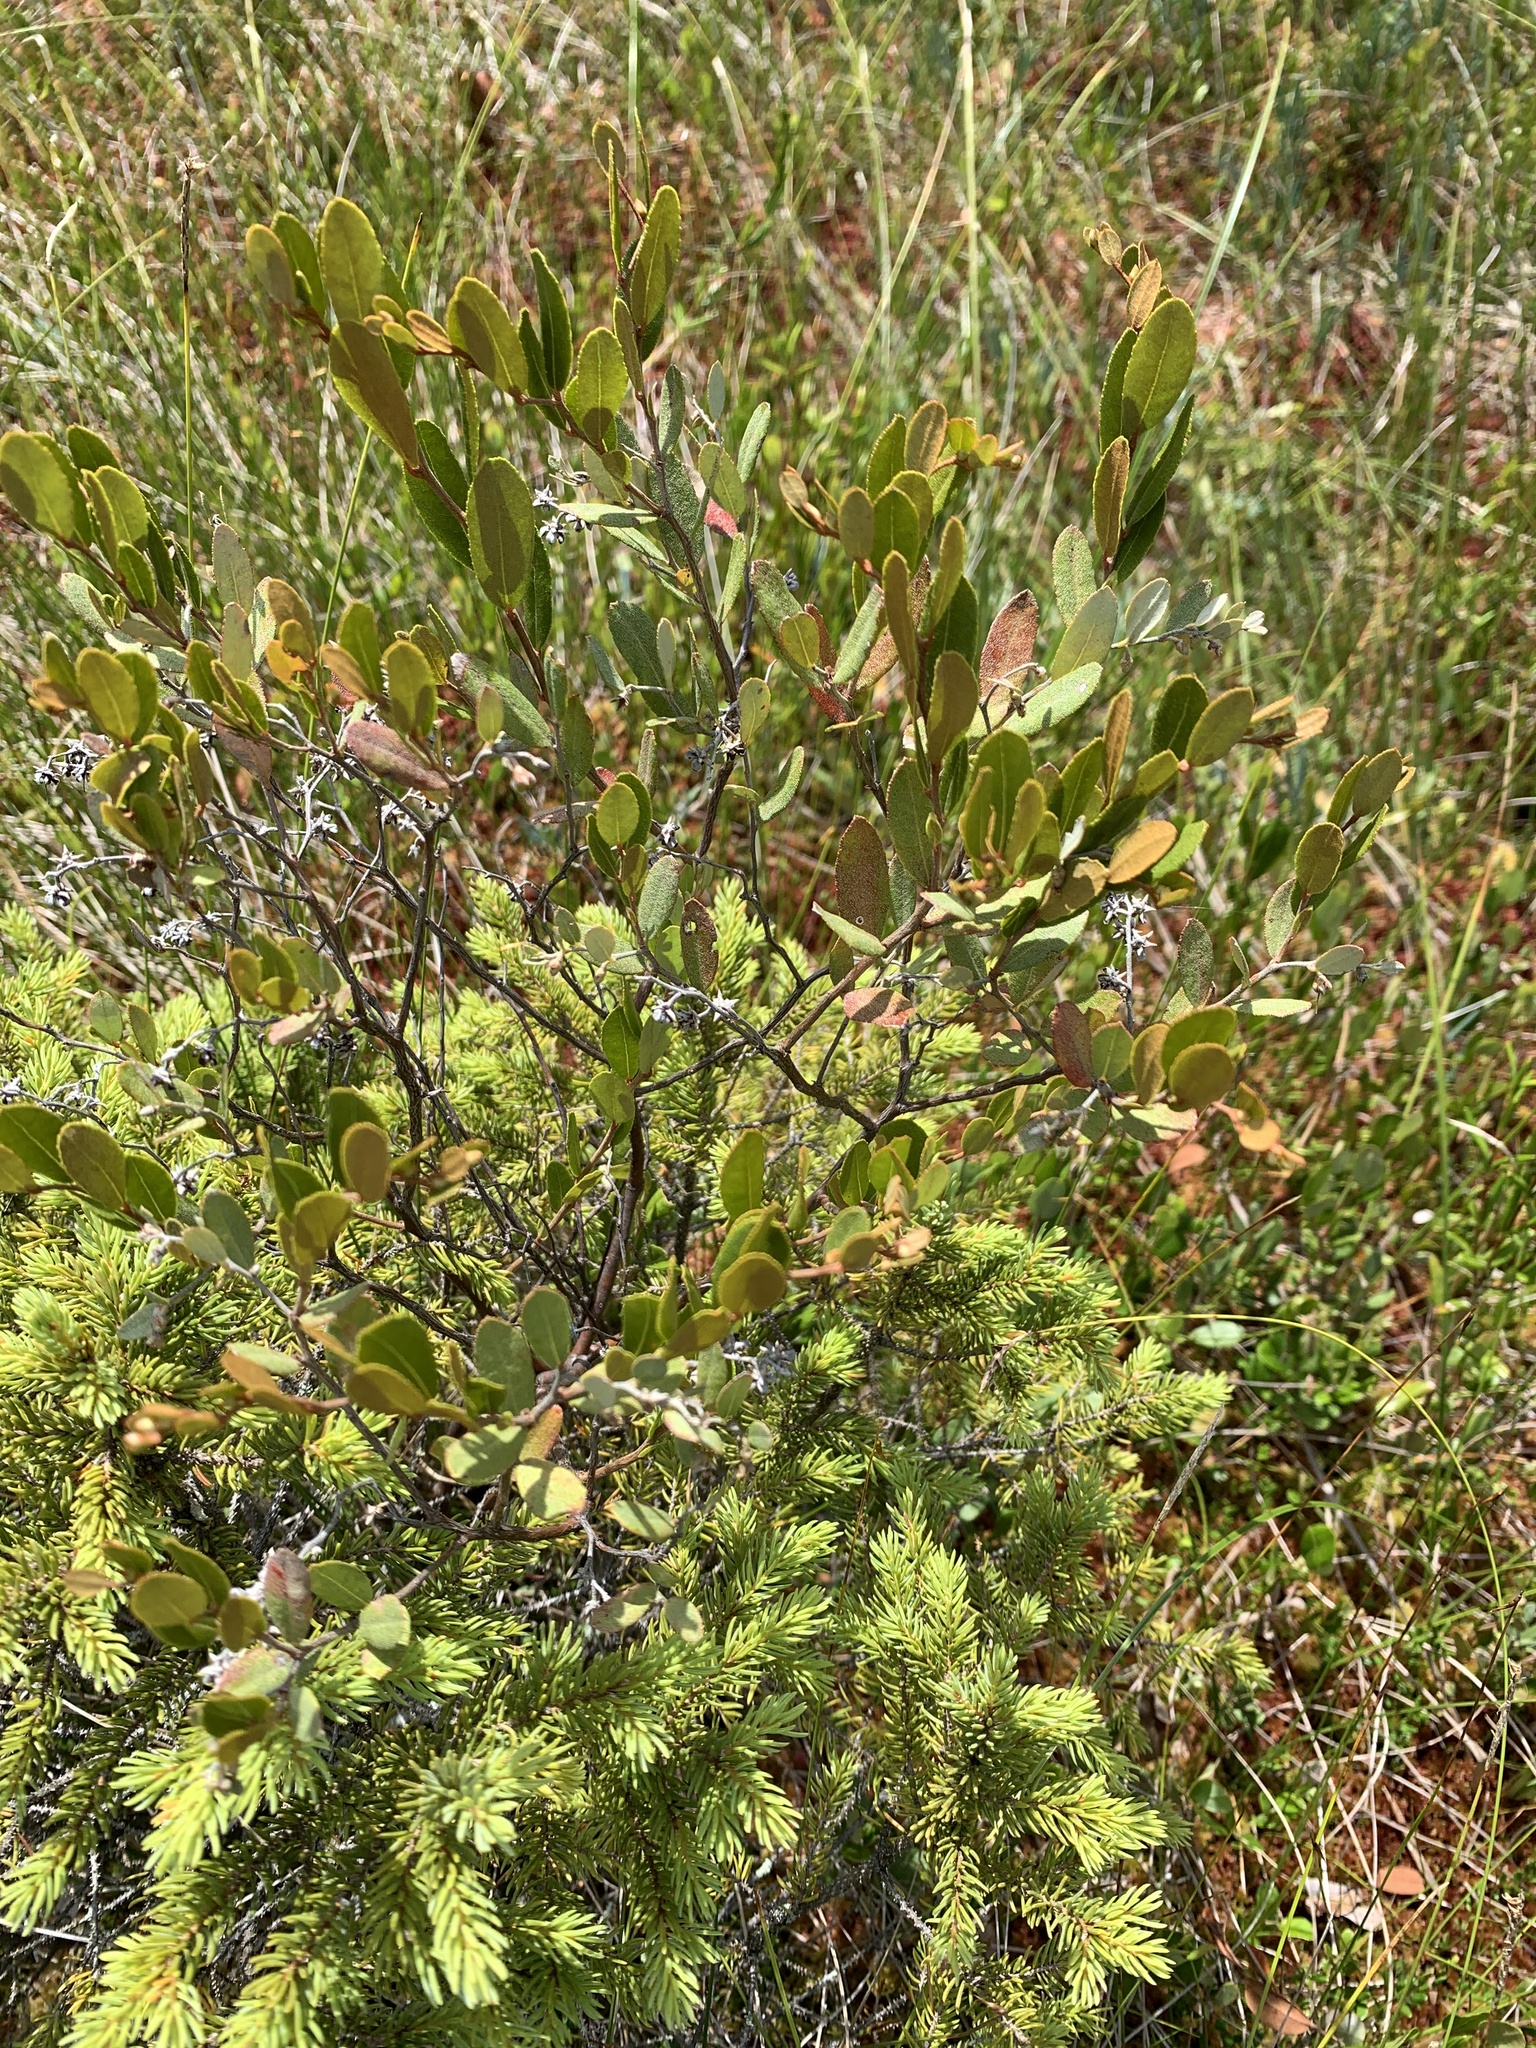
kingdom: Plantae
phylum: Tracheophyta
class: Magnoliopsida
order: Ericales
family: Ericaceae
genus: Chamaedaphne
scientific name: Chamaedaphne calyculata
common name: Leatherleaf
